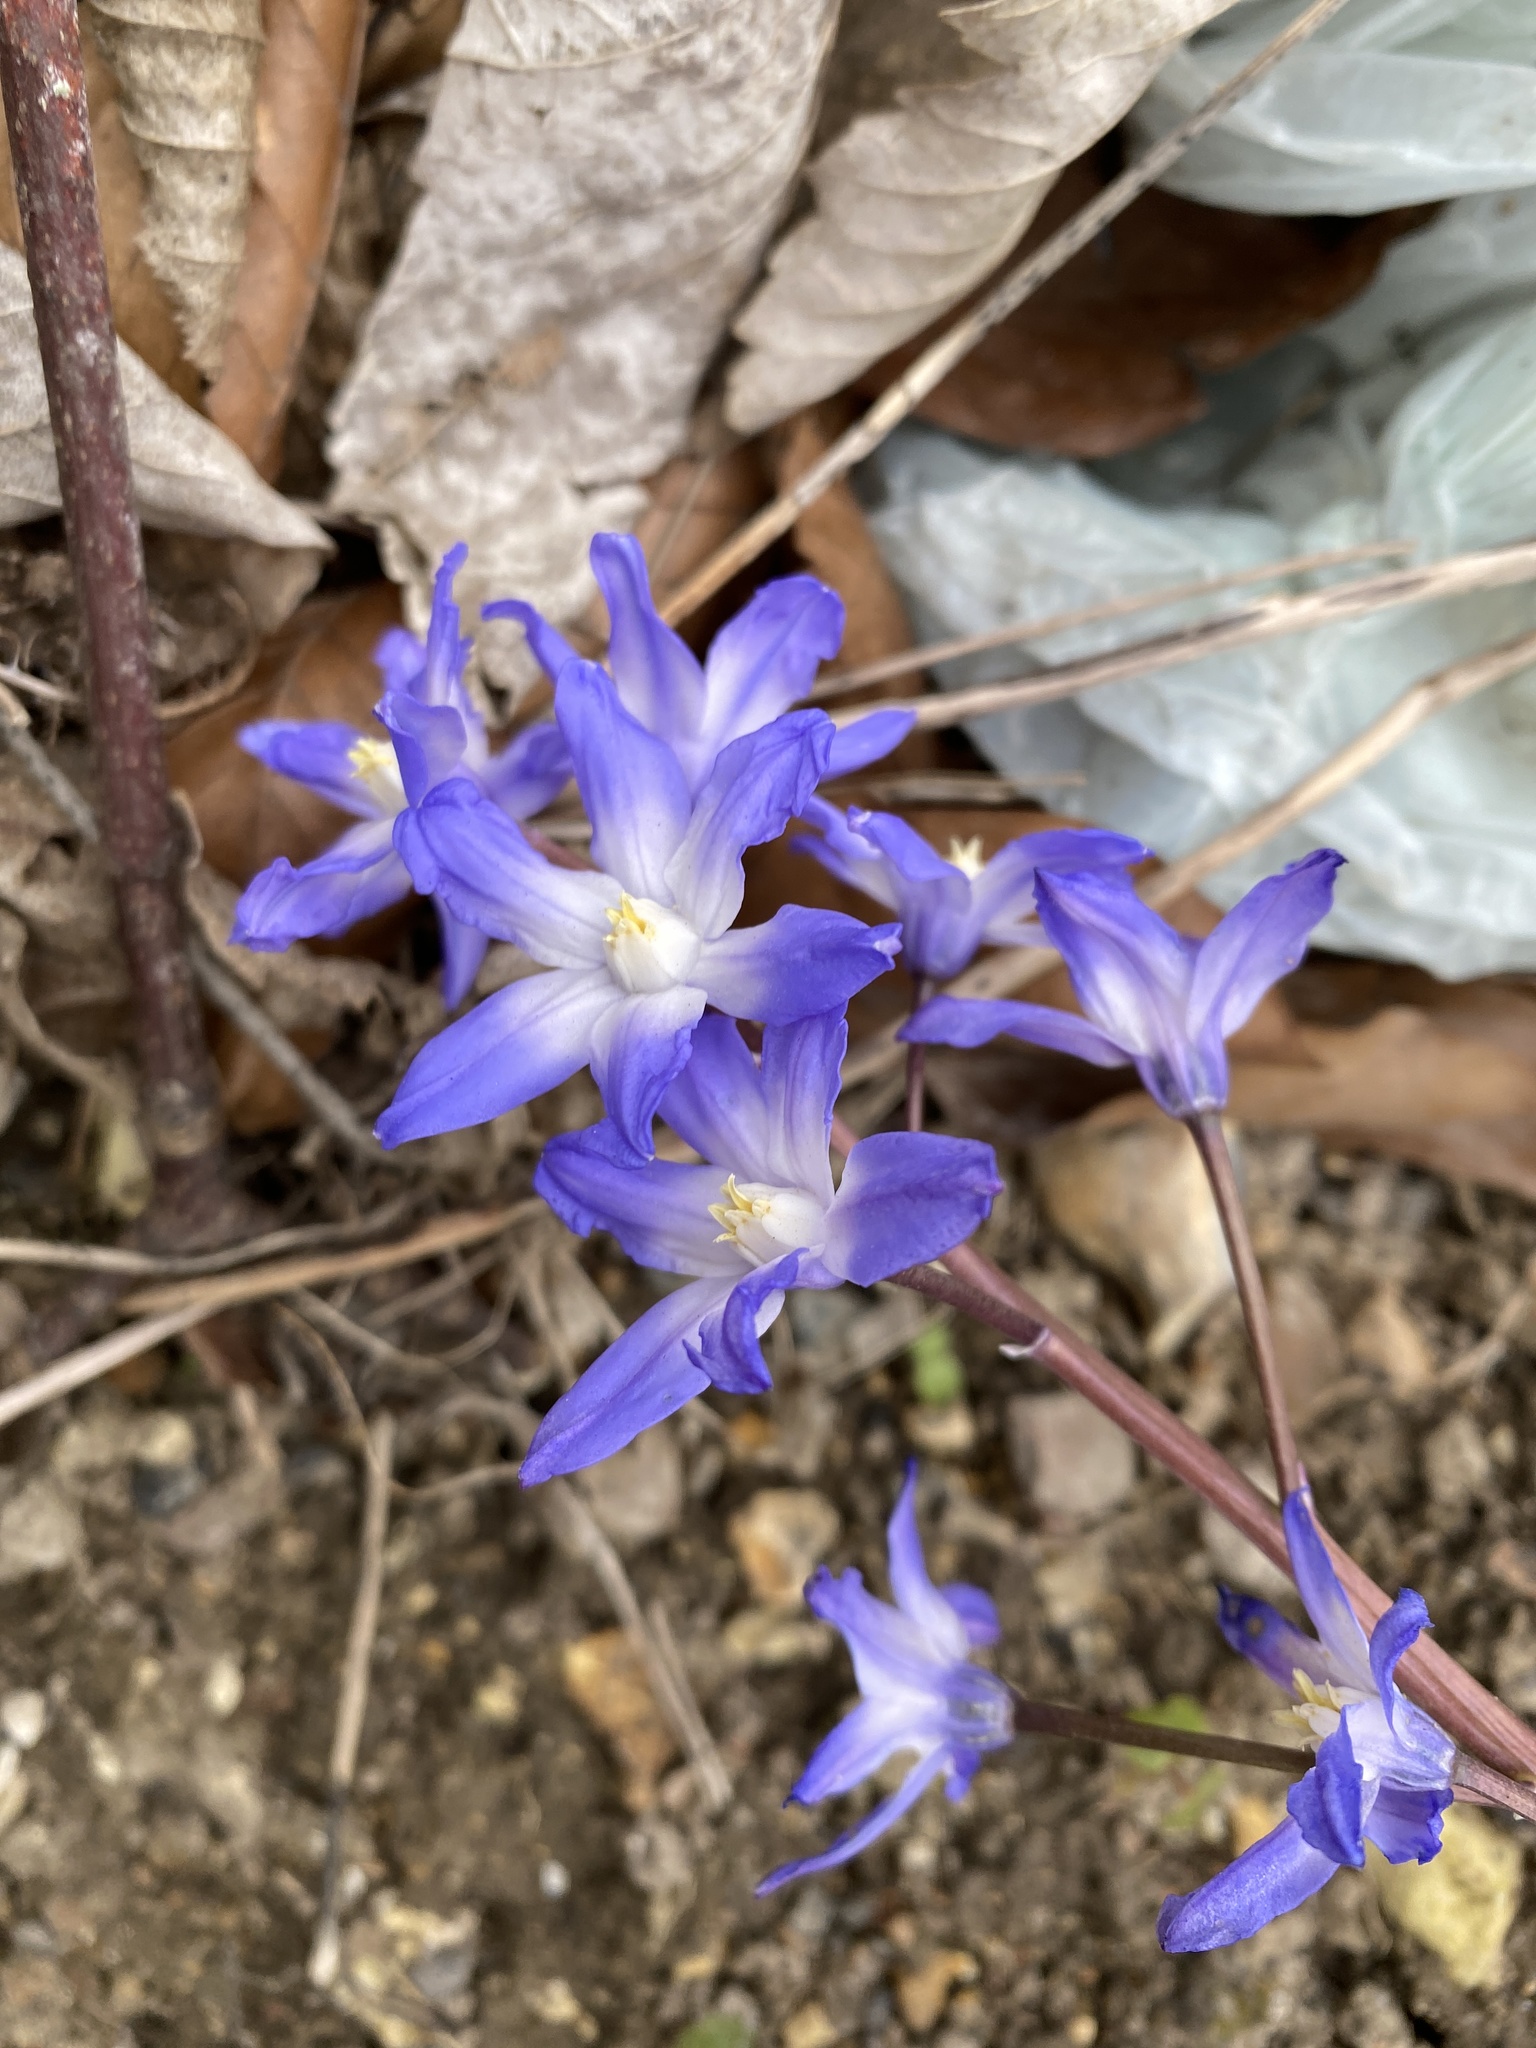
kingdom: Plantae
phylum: Tracheophyta
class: Liliopsida
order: Asparagales
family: Asparagaceae
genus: Scilla
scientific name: Scilla forbesii
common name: Glory-of-the-snow
